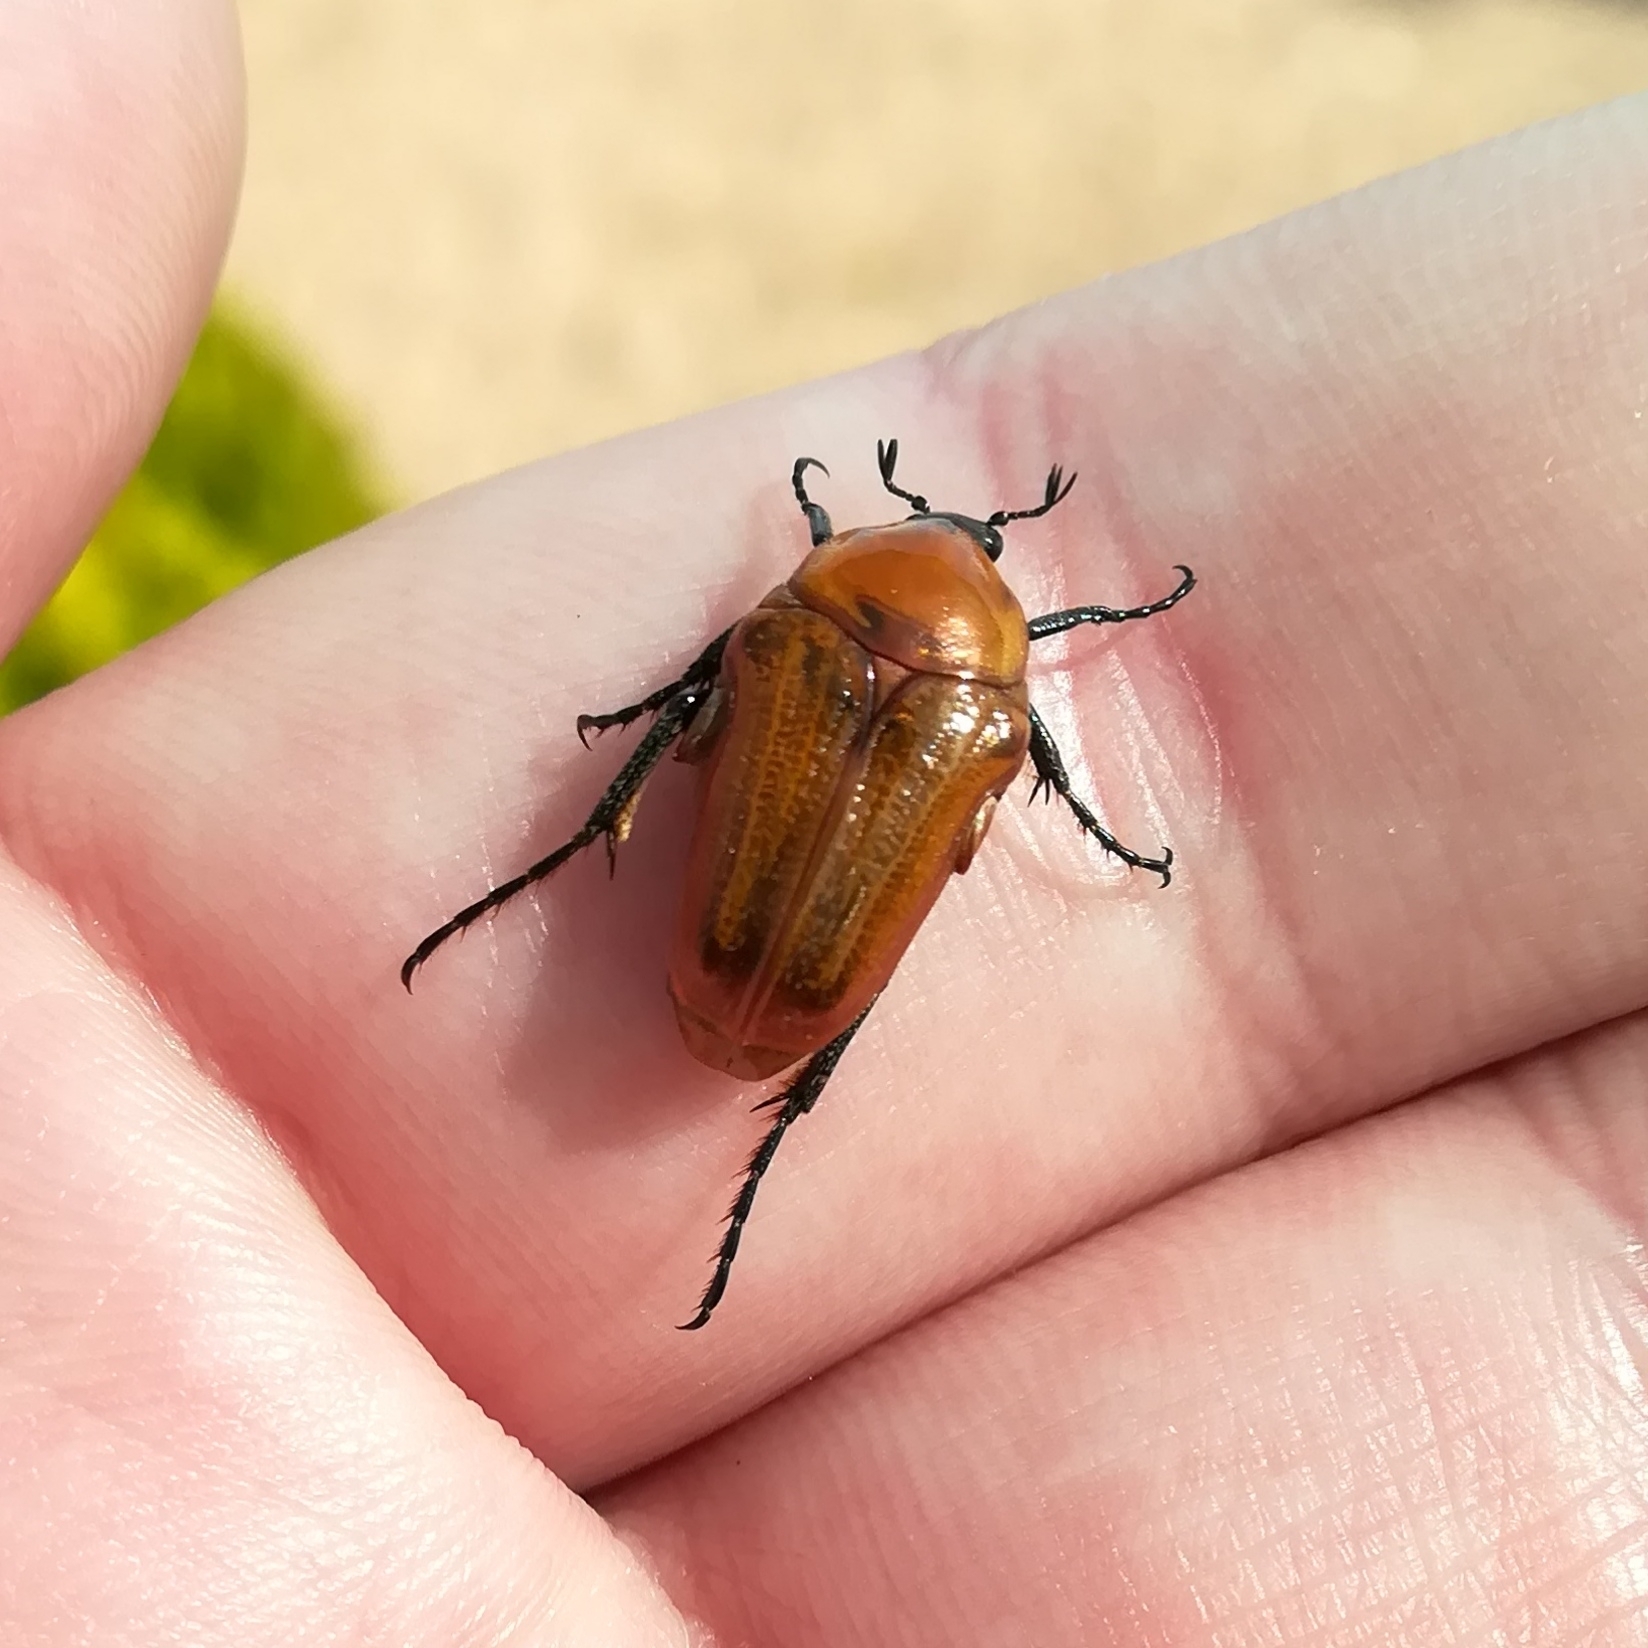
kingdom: Animalia
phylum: Arthropoda
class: Insecta
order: Coleoptera
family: Scarabaeidae
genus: Leucocelis
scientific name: Leucocelis rubra
